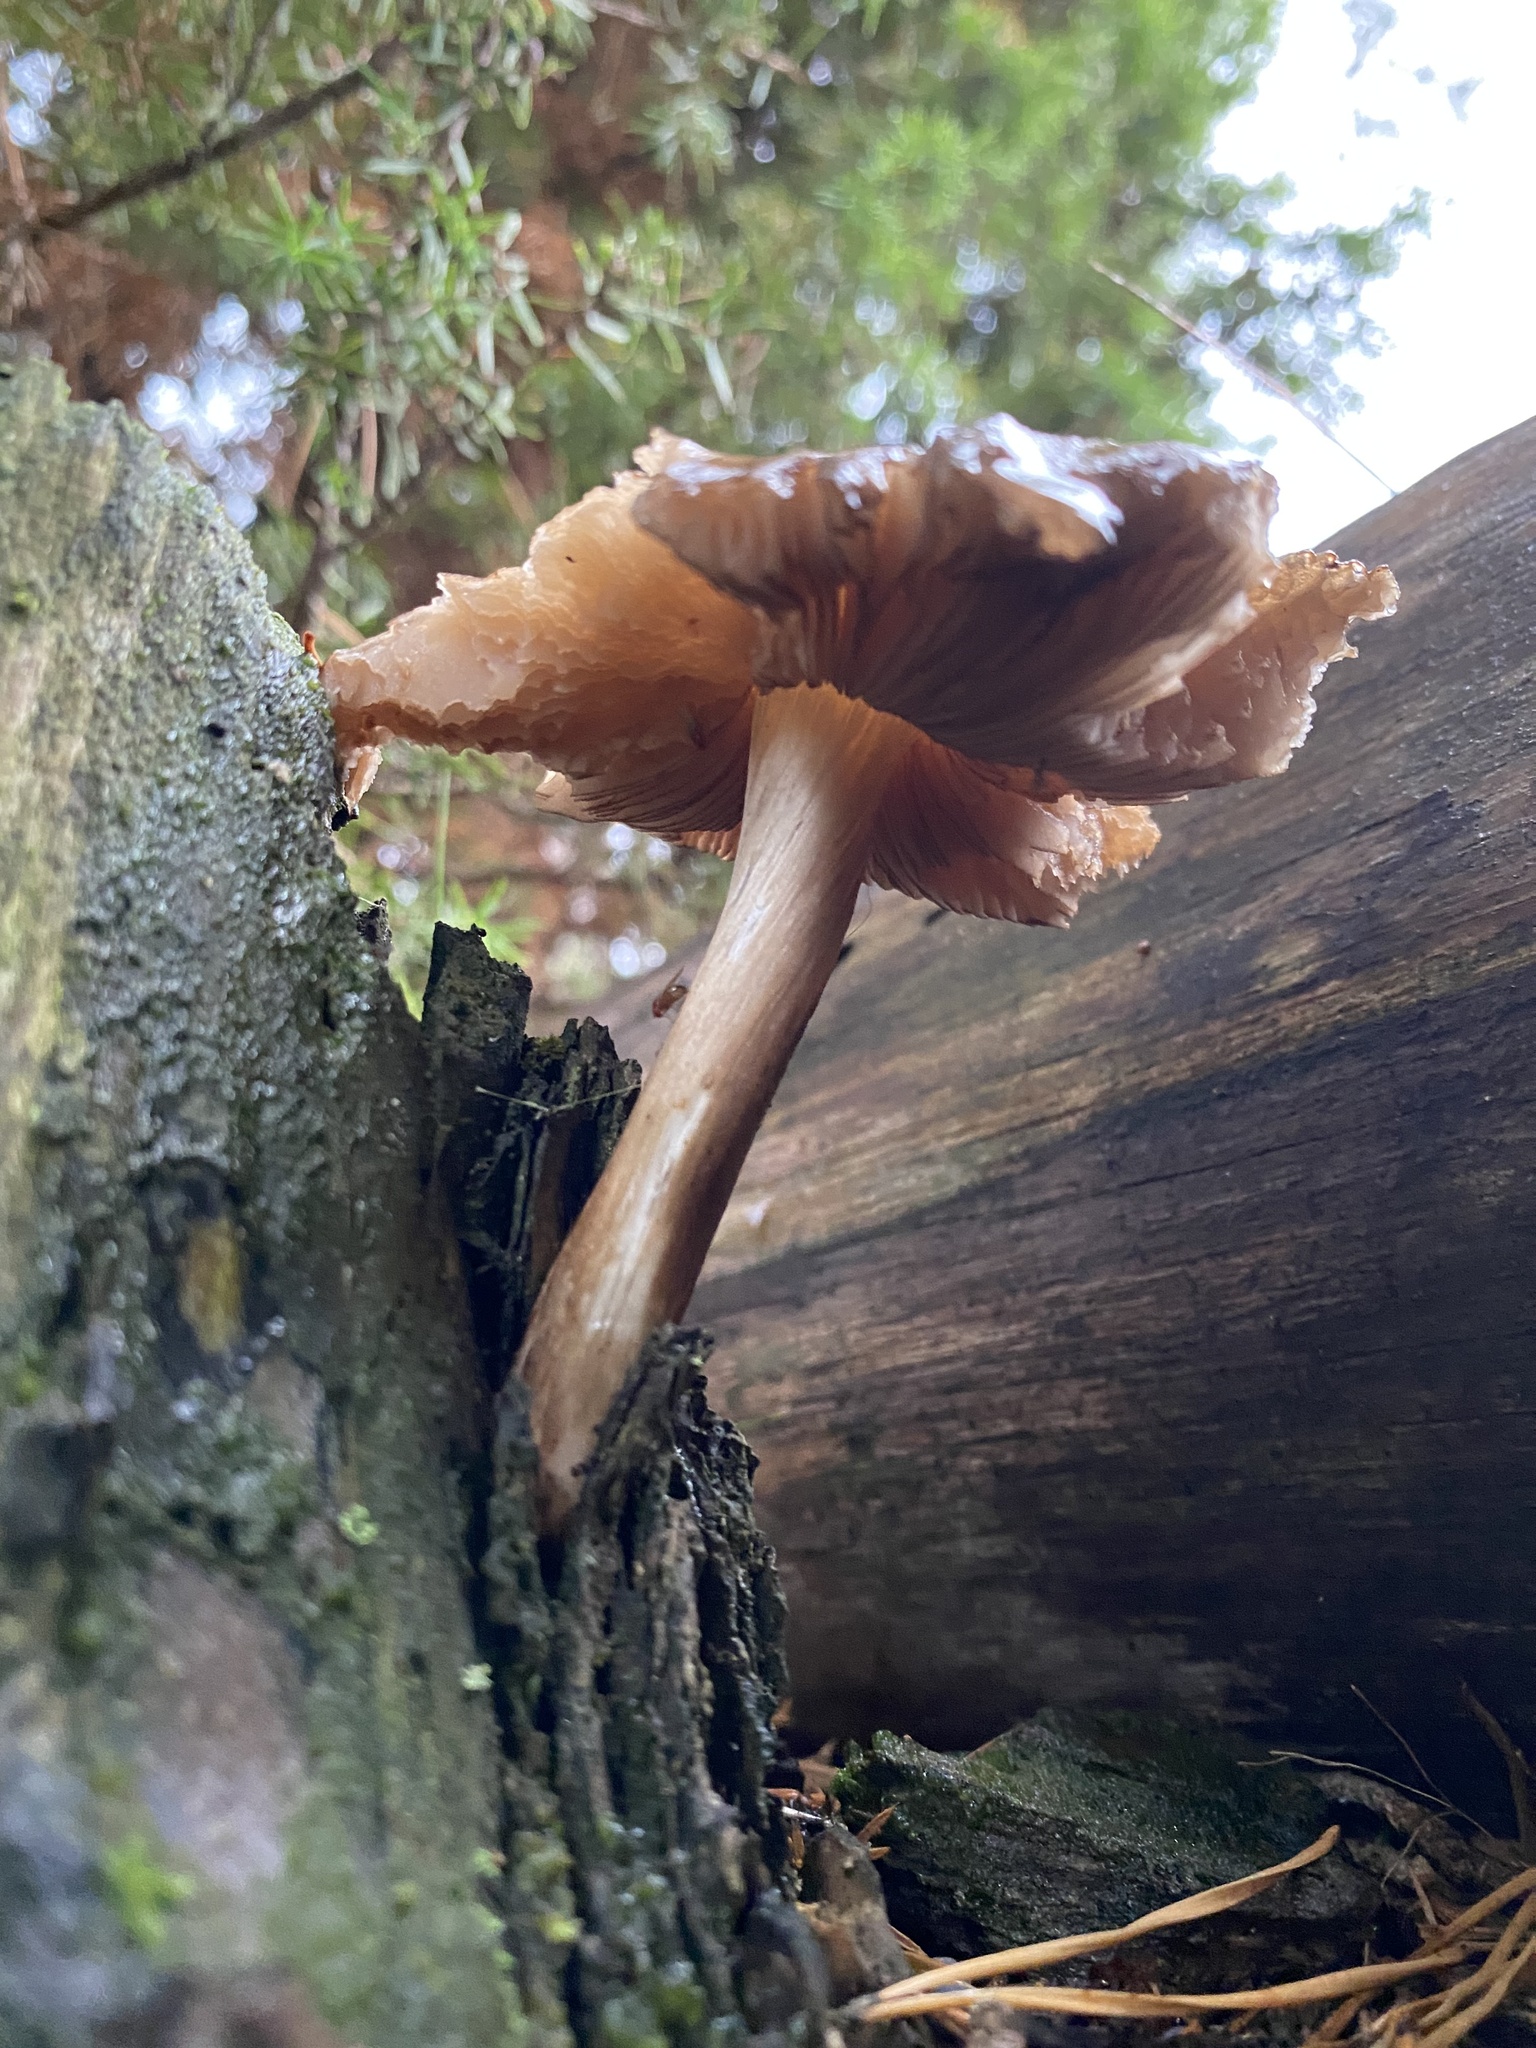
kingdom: Fungi
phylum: Basidiomycota
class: Agaricomycetes
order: Agaricales
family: Pluteaceae
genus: Pluteus
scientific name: Pluteus atromarginatus
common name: Blackedged shield
